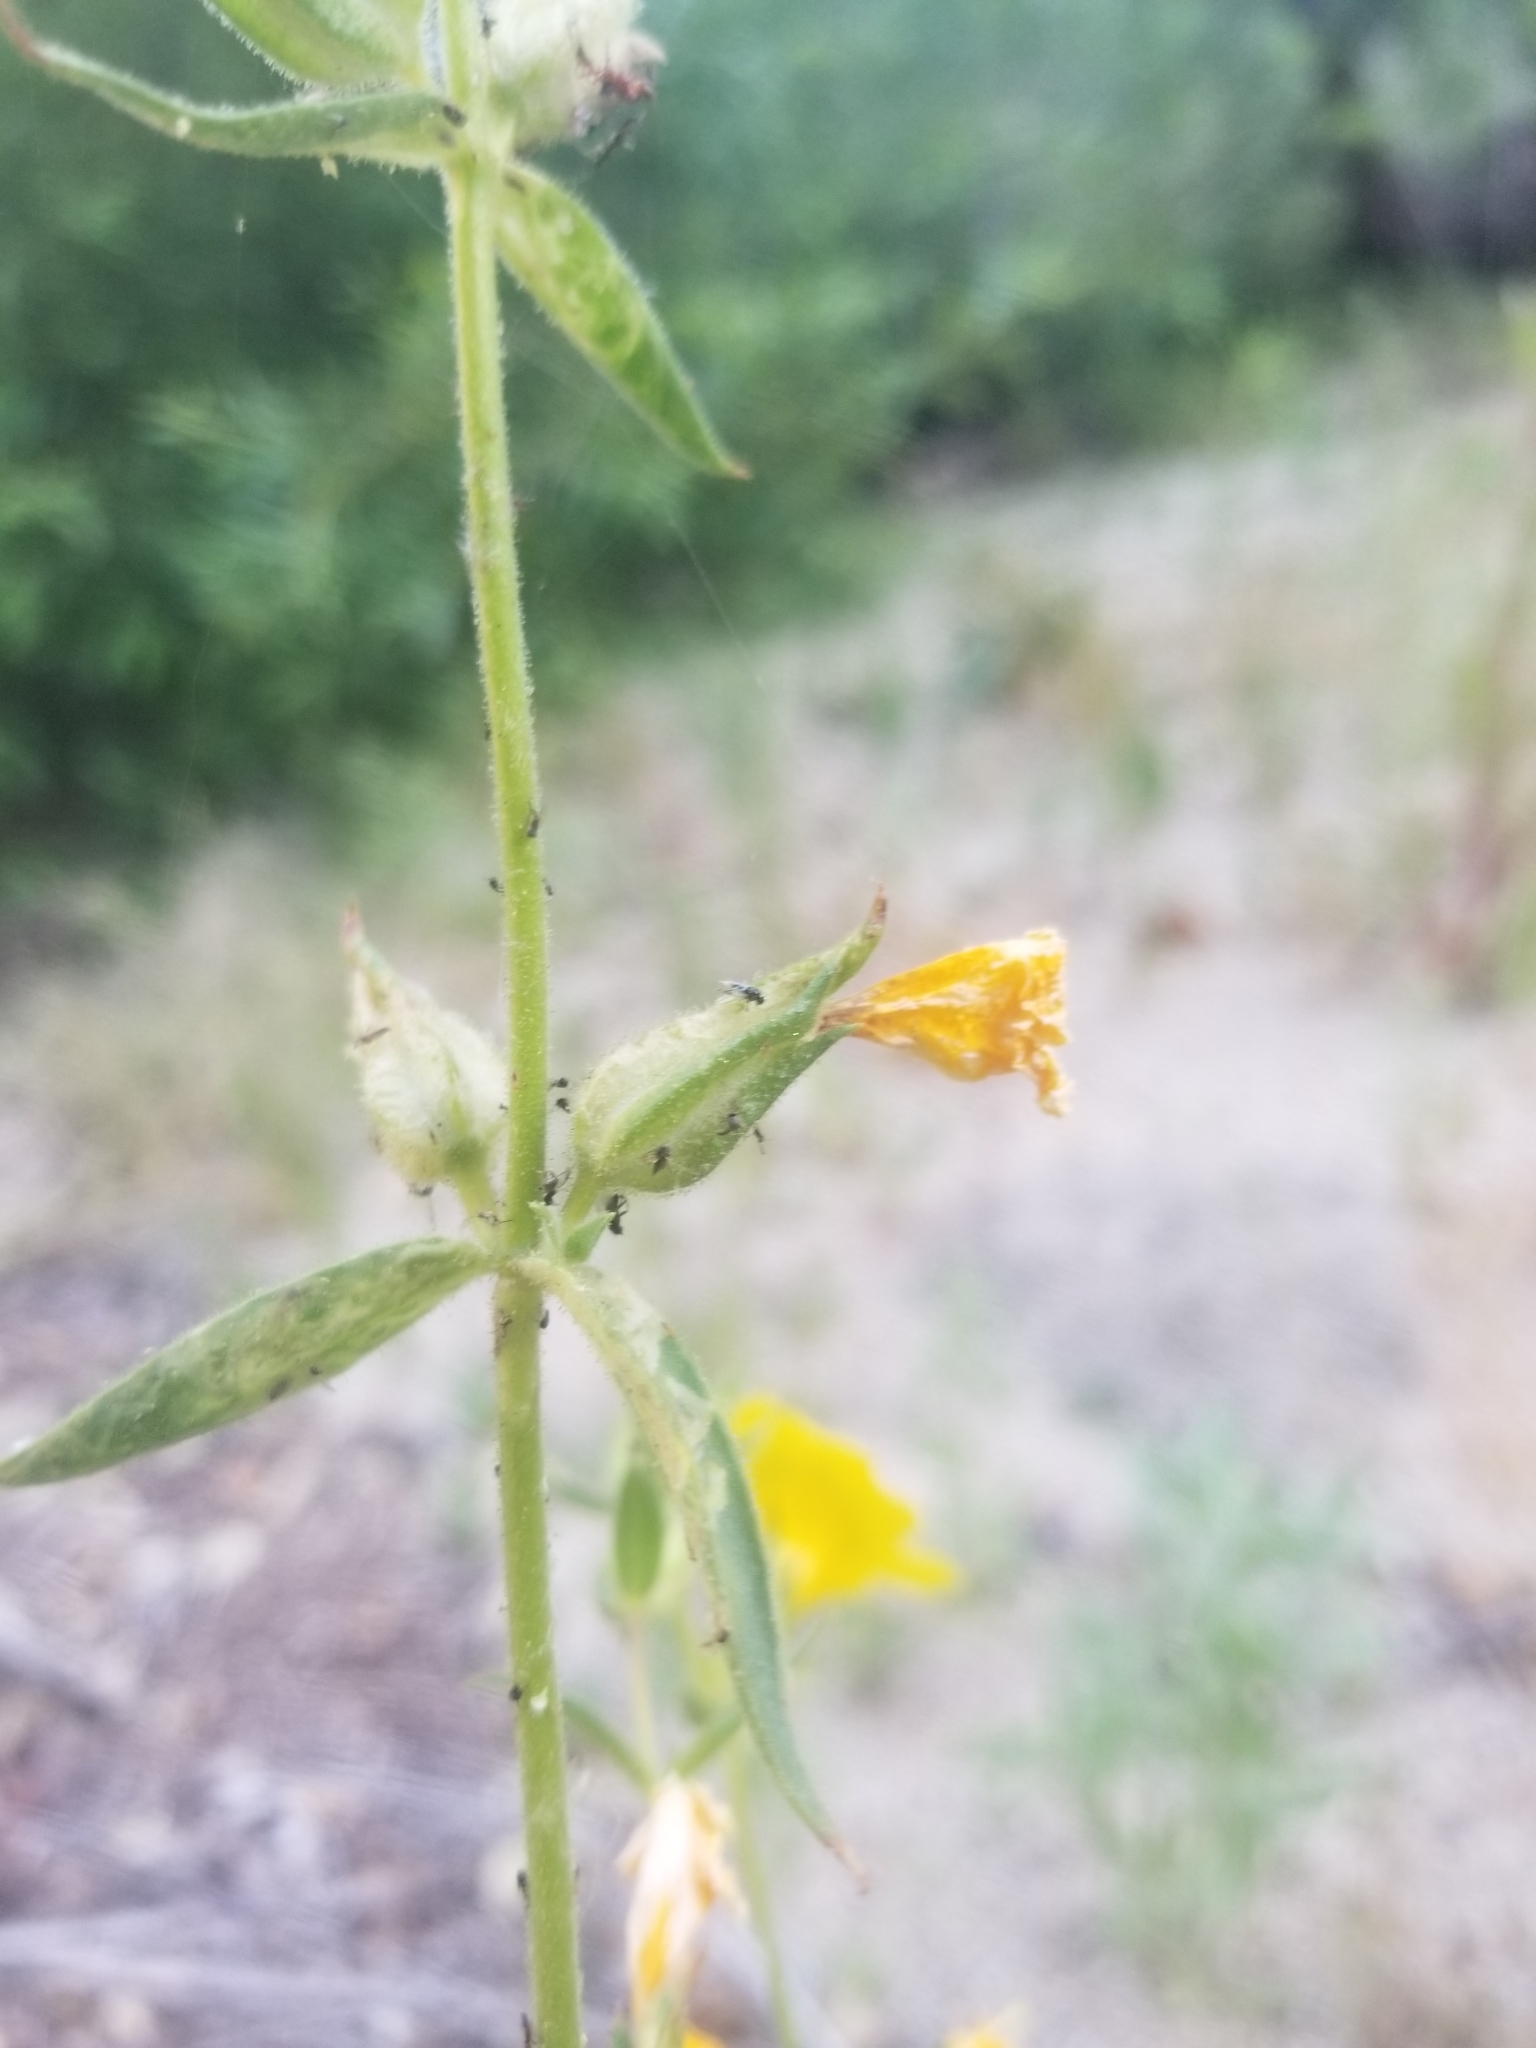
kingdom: Plantae
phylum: Tracheophyta
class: Magnoliopsida
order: Lamiales
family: Phrymaceae
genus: Diplacus
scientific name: Diplacus brevipes
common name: Wide-throat yellow monkey-flower
